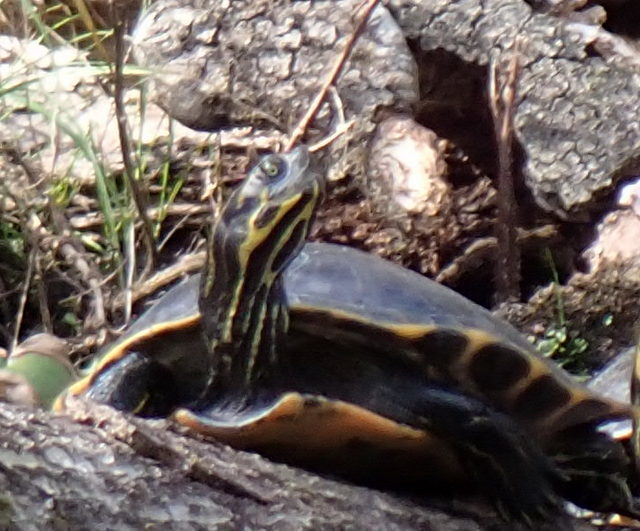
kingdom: Animalia
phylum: Chordata
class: Testudines
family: Emydidae
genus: Pseudemys
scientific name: Pseudemys concinna
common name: Eastern river cooter
